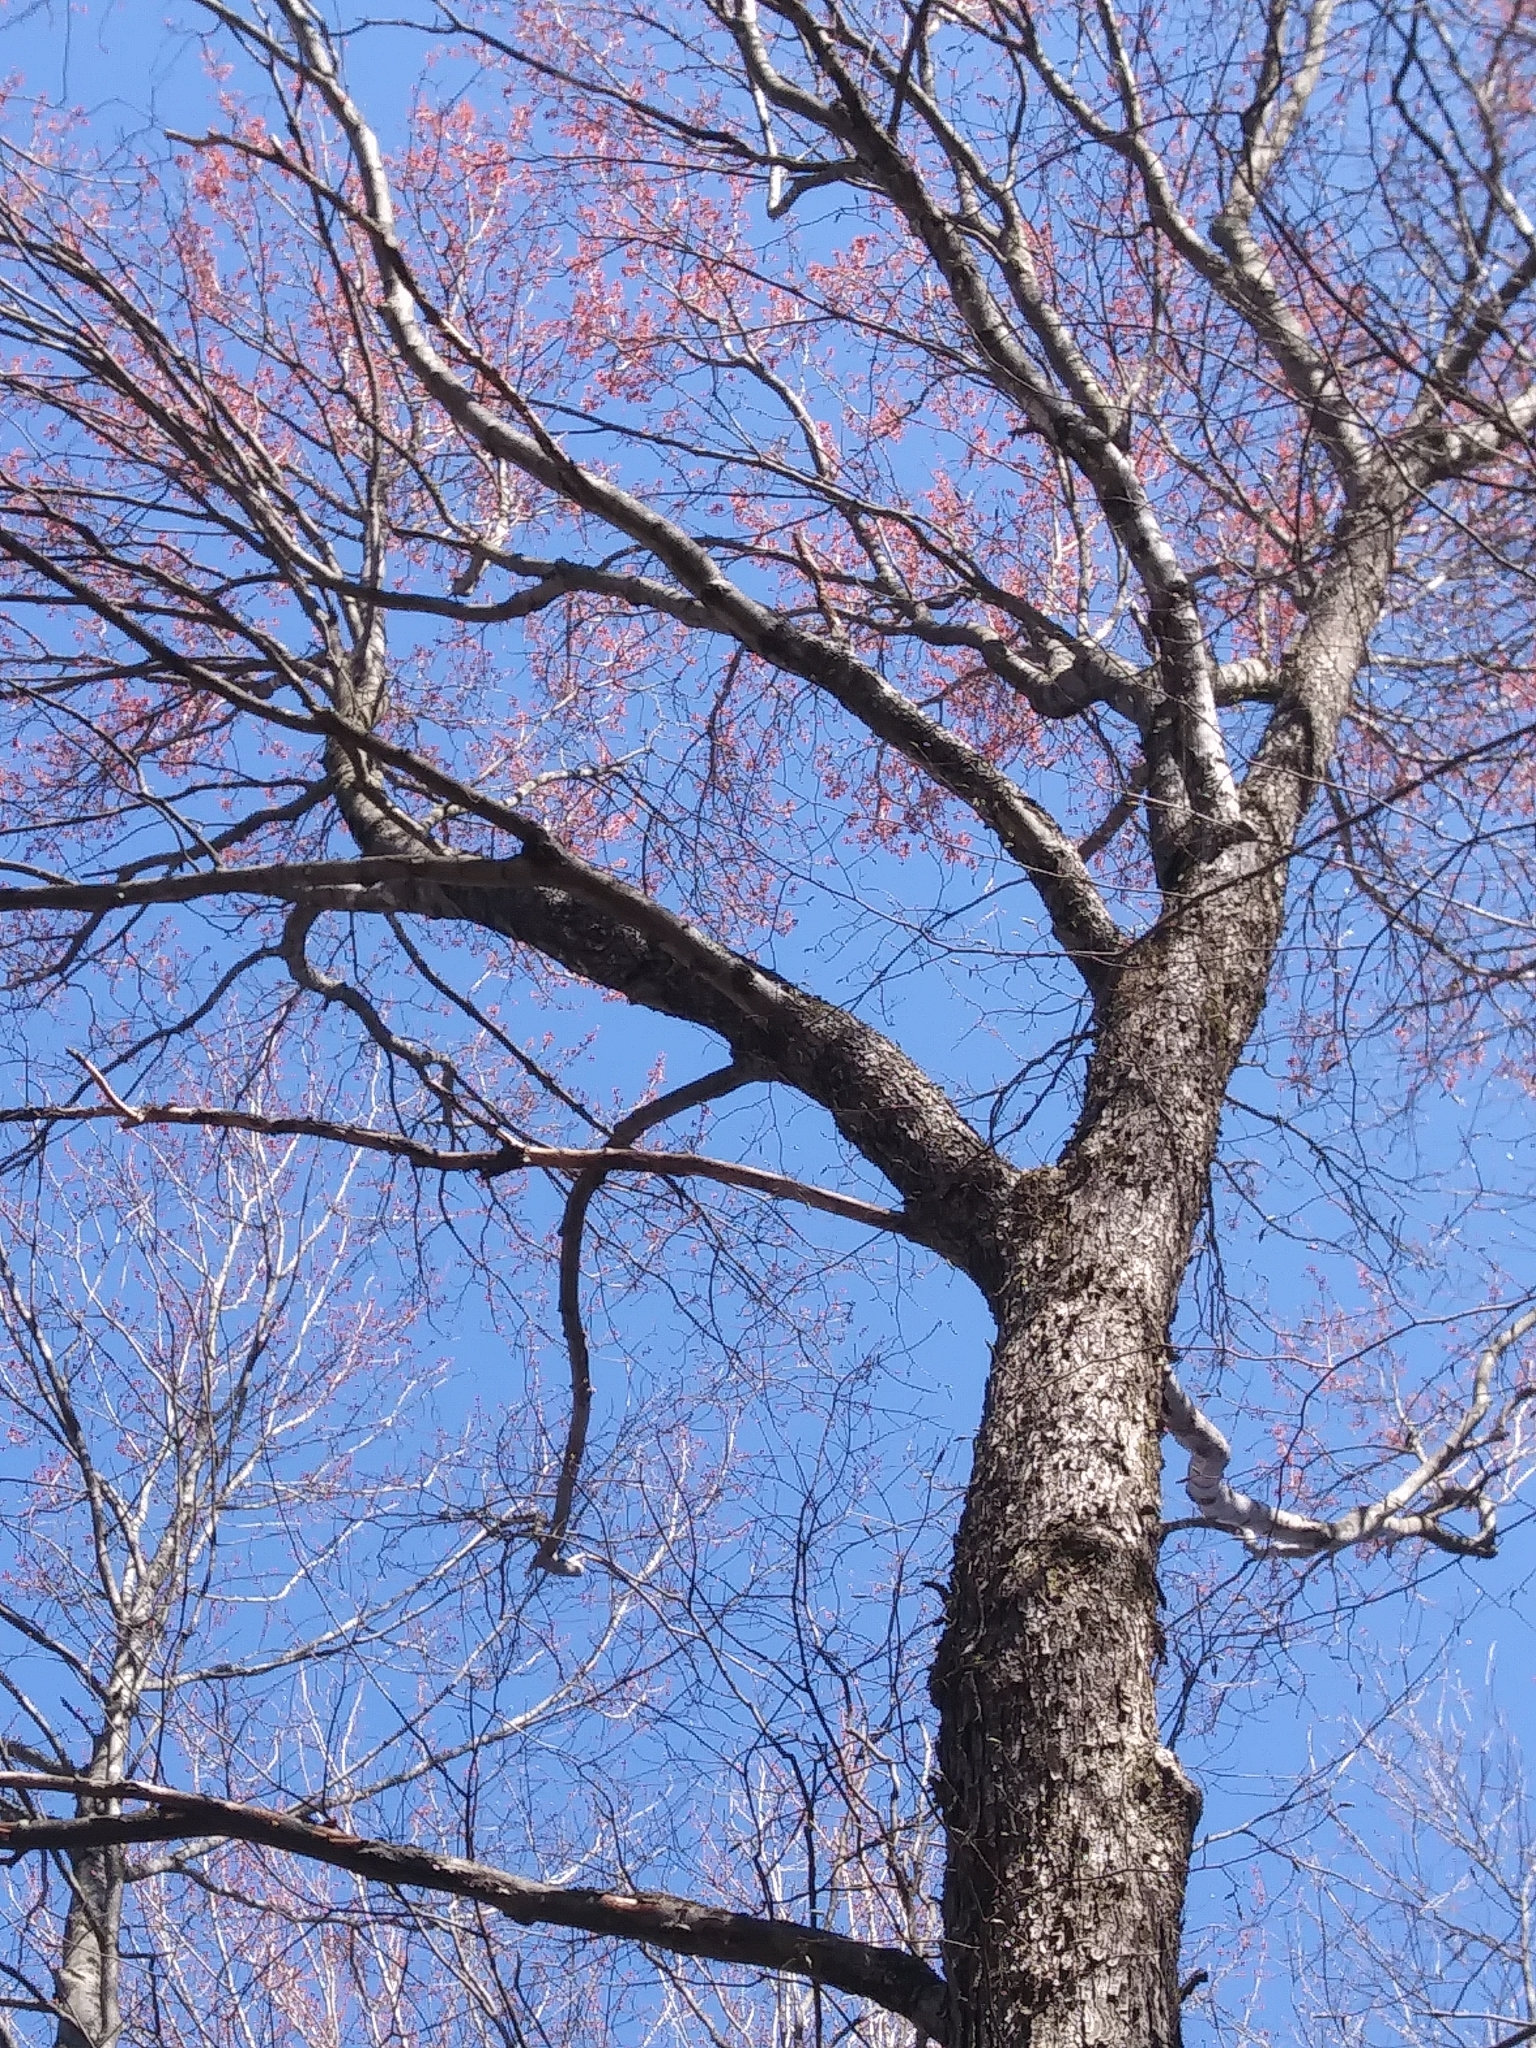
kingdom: Plantae
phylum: Tracheophyta
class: Magnoliopsida
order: Sapindales
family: Sapindaceae
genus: Acer
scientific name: Acer rubrum
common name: Red maple
